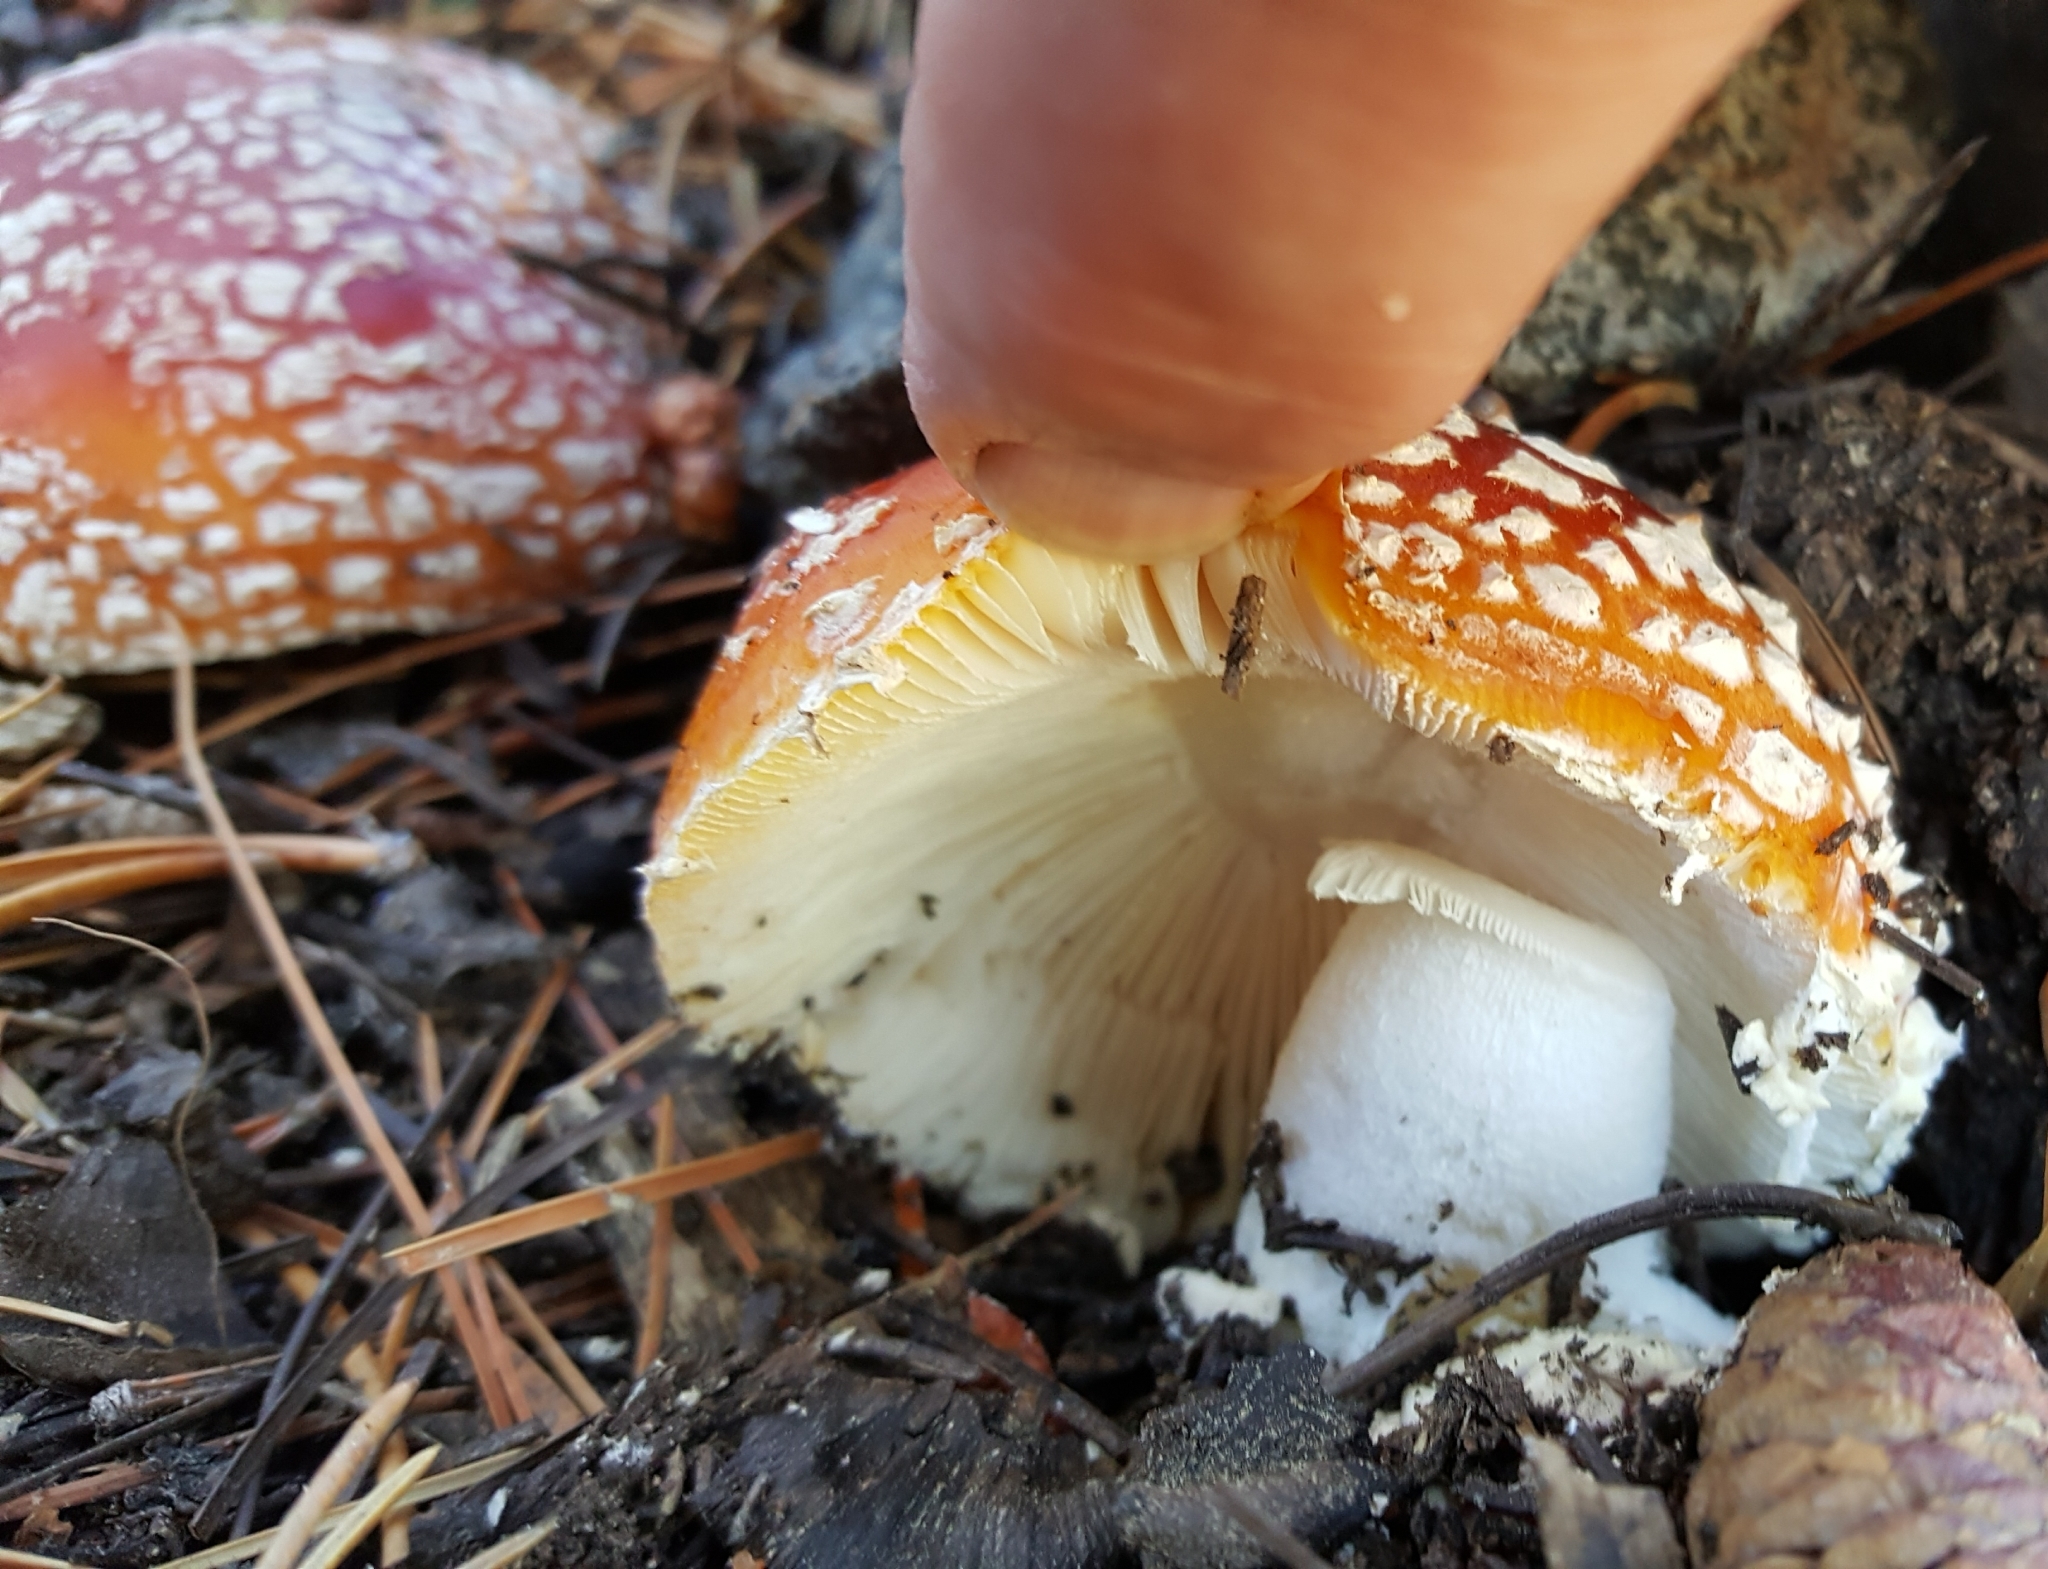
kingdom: Fungi
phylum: Basidiomycota
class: Agaricomycetes
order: Agaricales
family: Amanitaceae
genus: Amanita
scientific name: Amanita muscaria
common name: Fly agaric
